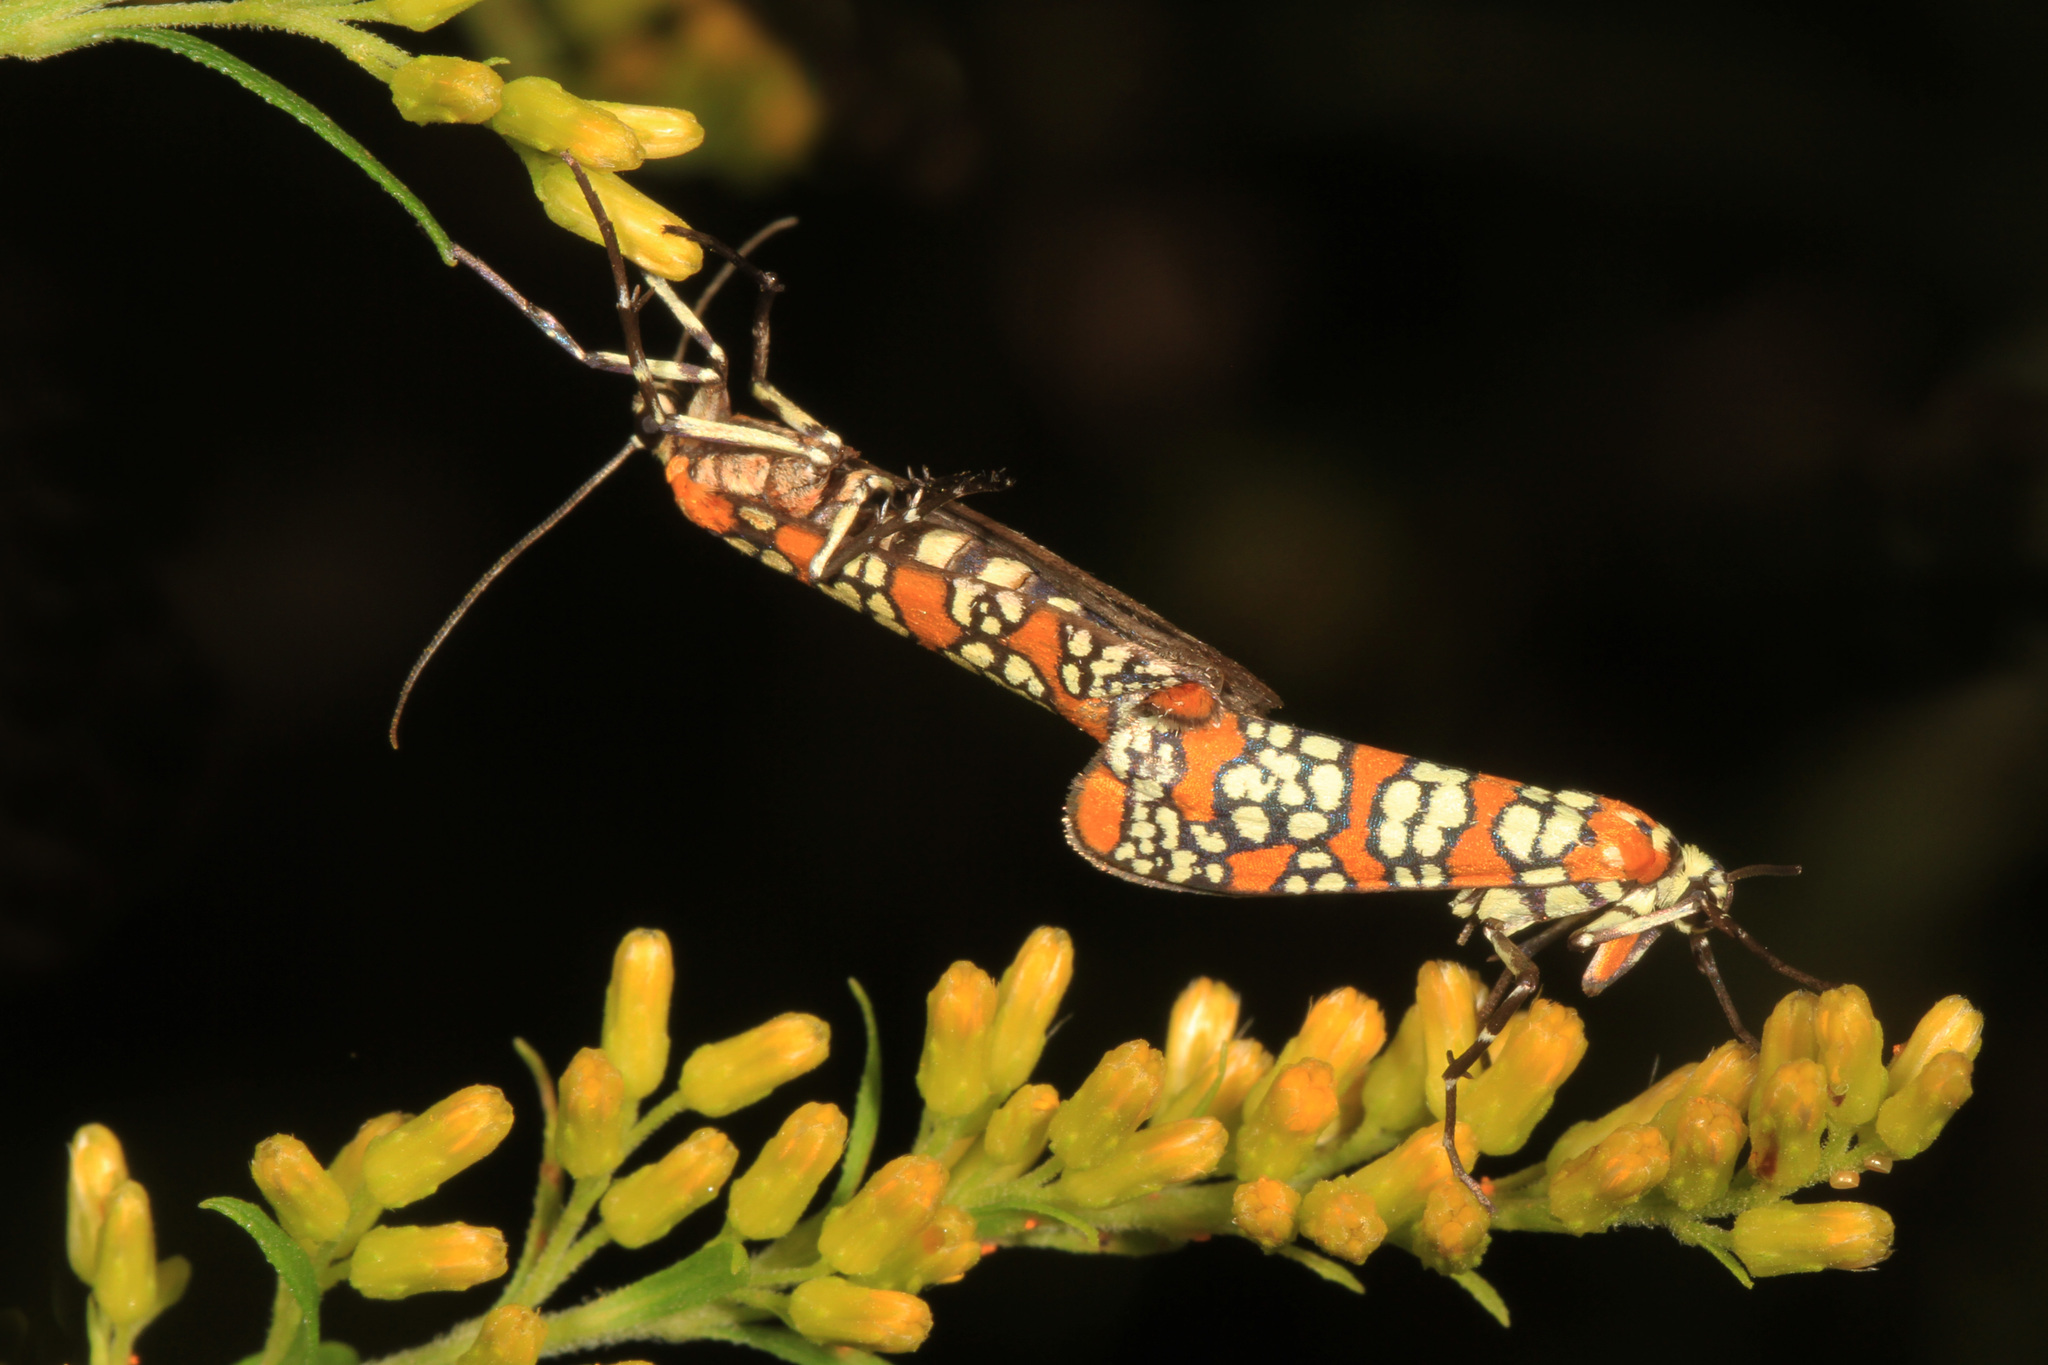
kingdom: Animalia
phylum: Arthropoda
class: Insecta
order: Lepidoptera
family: Attevidae
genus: Atteva
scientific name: Atteva punctella
